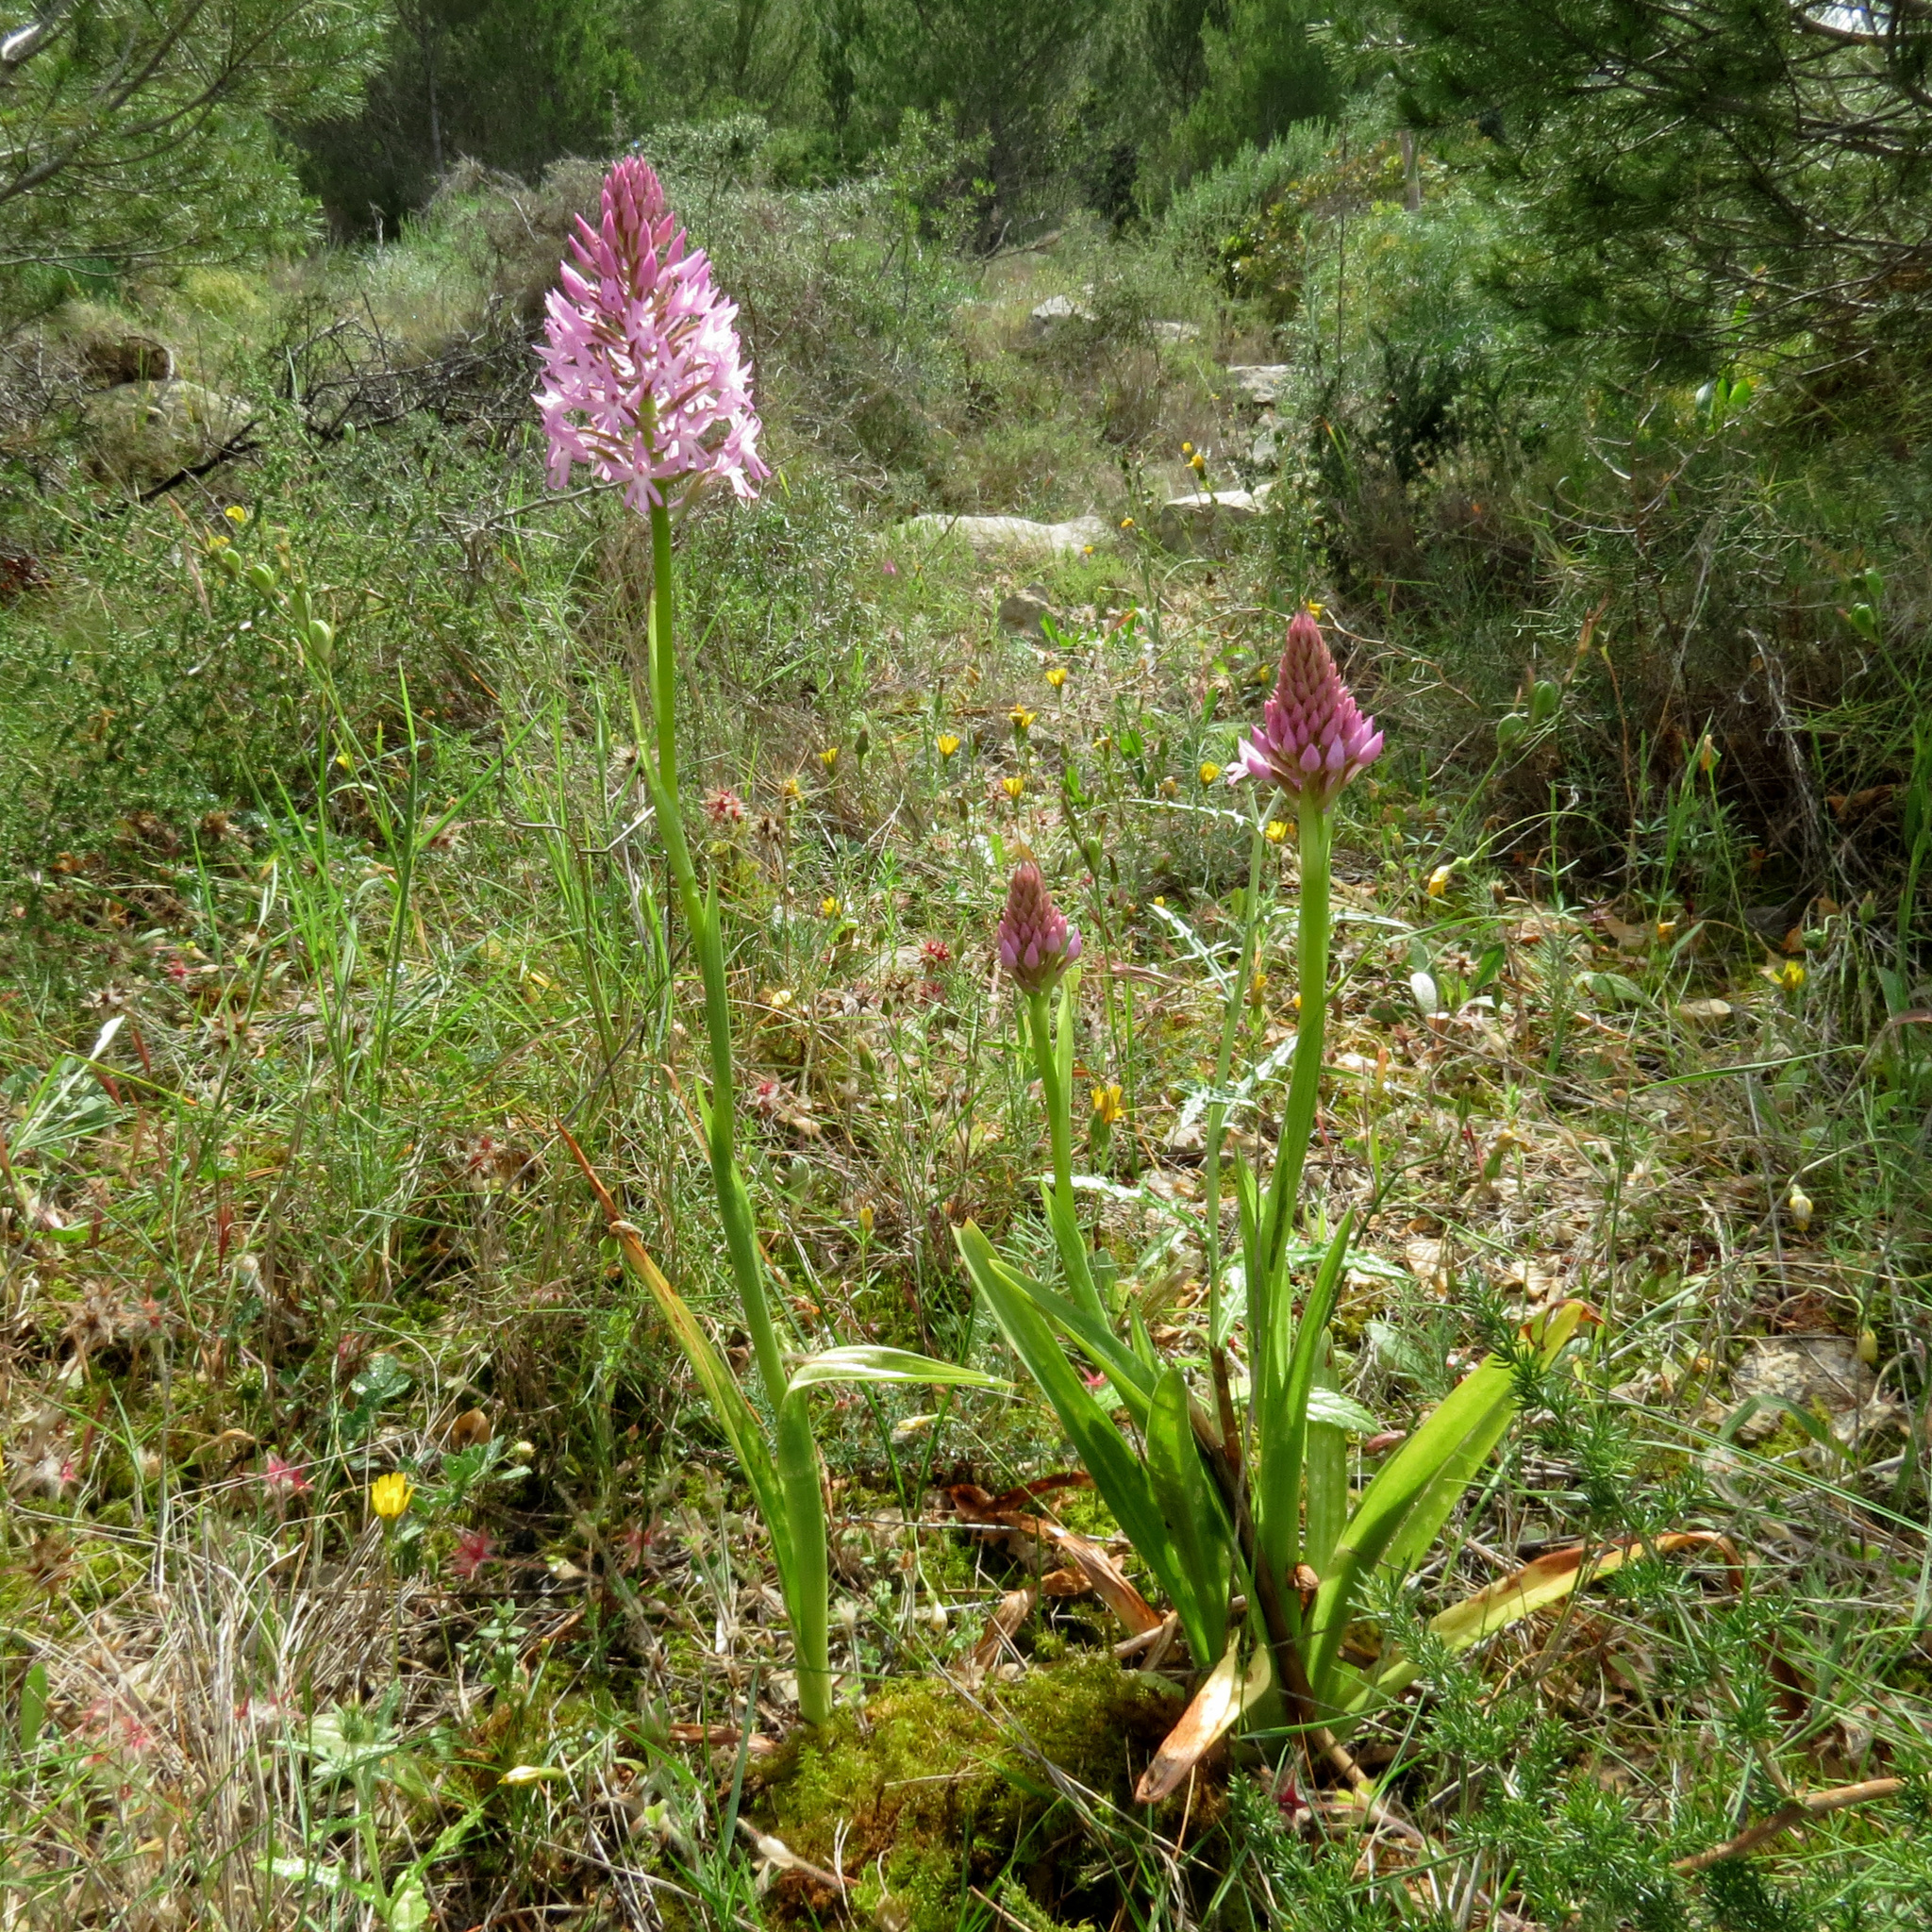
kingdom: Plantae
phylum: Tracheophyta
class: Liliopsida
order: Asparagales
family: Orchidaceae
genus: Anacamptis
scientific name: Anacamptis pyramidalis
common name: Pyramidal orchid
